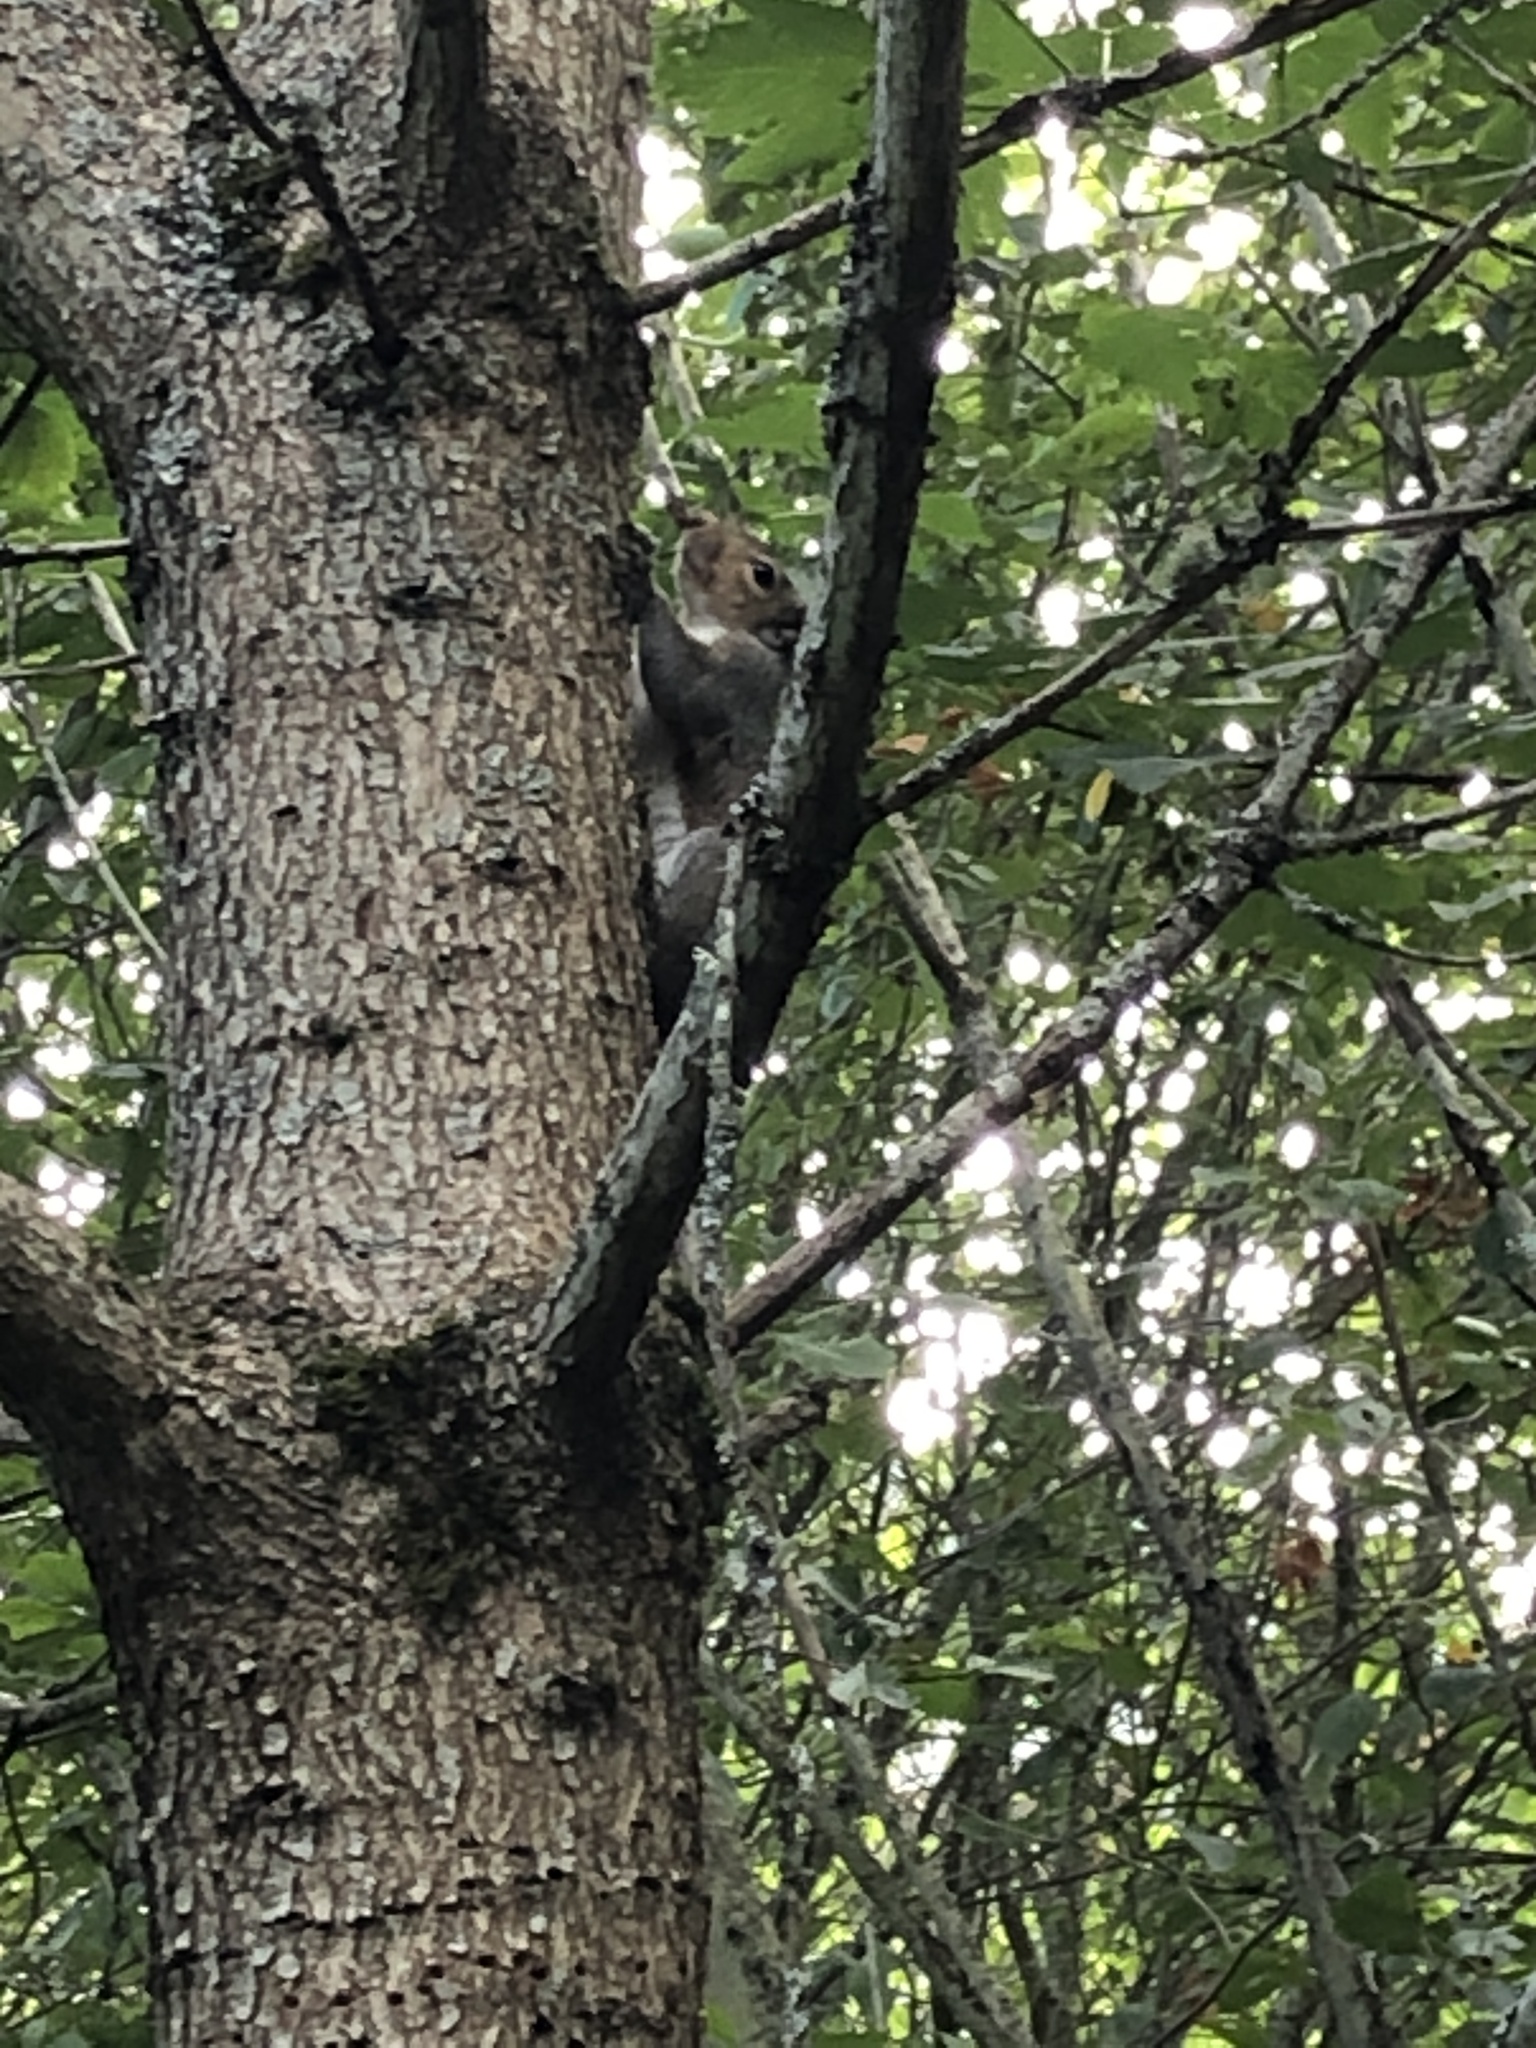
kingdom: Animalia
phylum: Chordata
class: Mammalia
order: Rodentia
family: Sciuridae
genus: Sciurus
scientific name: Sciurus carolinensis
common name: Eastern gray squirrel
